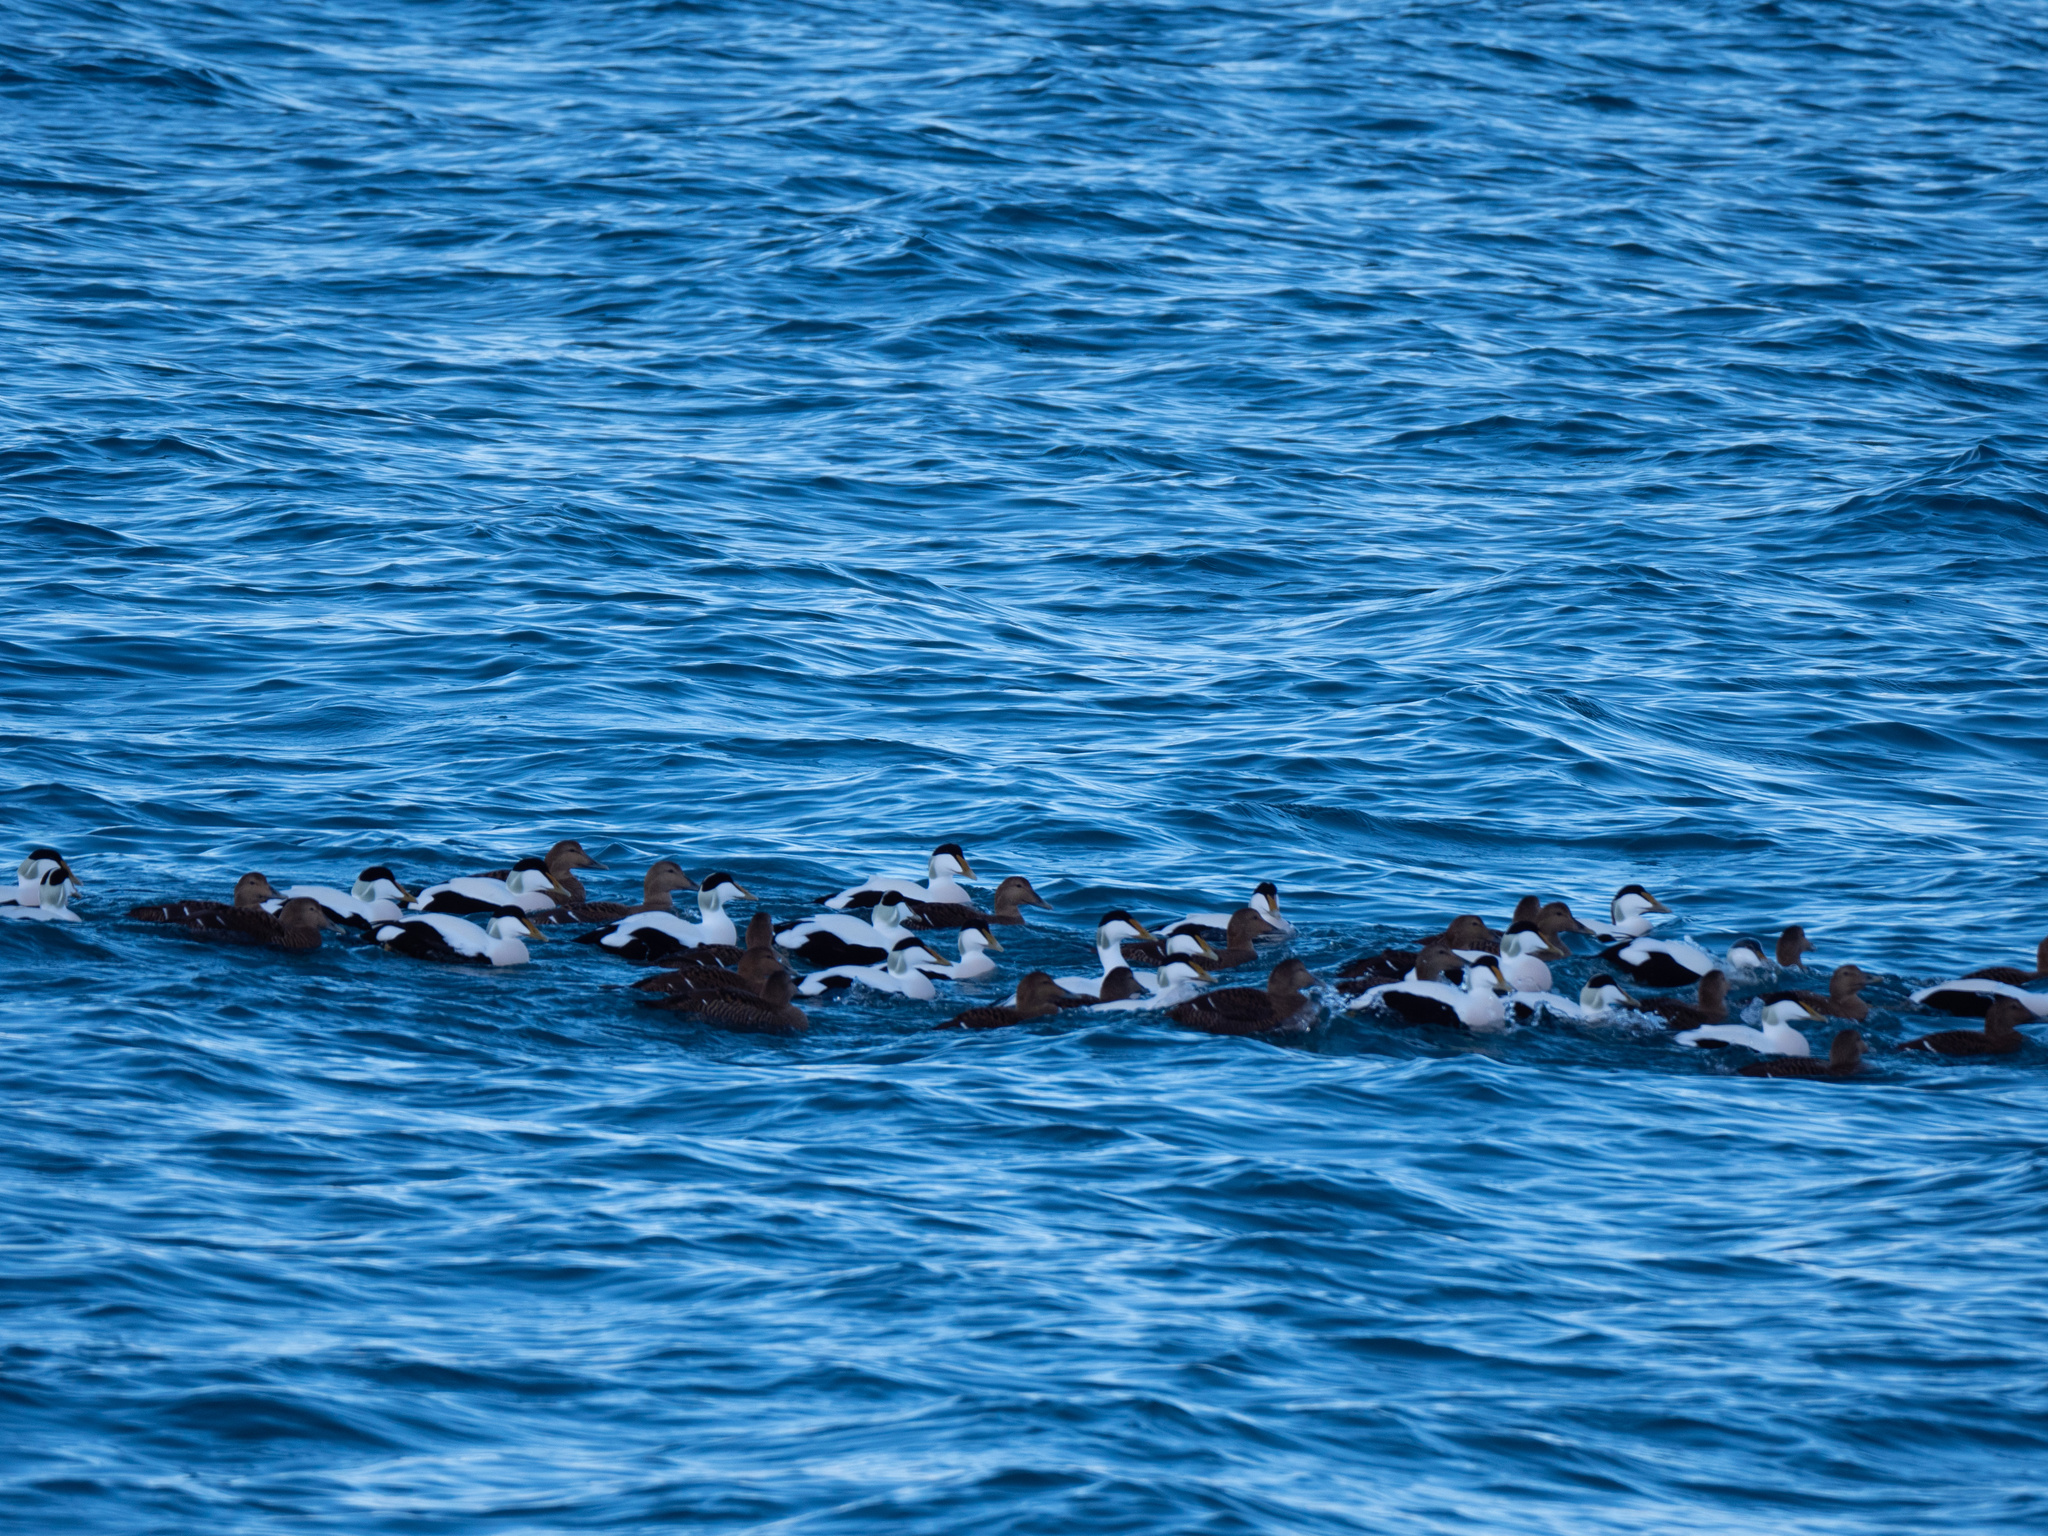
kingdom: Animalia
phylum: Chordata
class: Aves
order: Anseriformes
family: Anatidae
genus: Somateria
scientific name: Somateria mollissima
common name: Common eider
